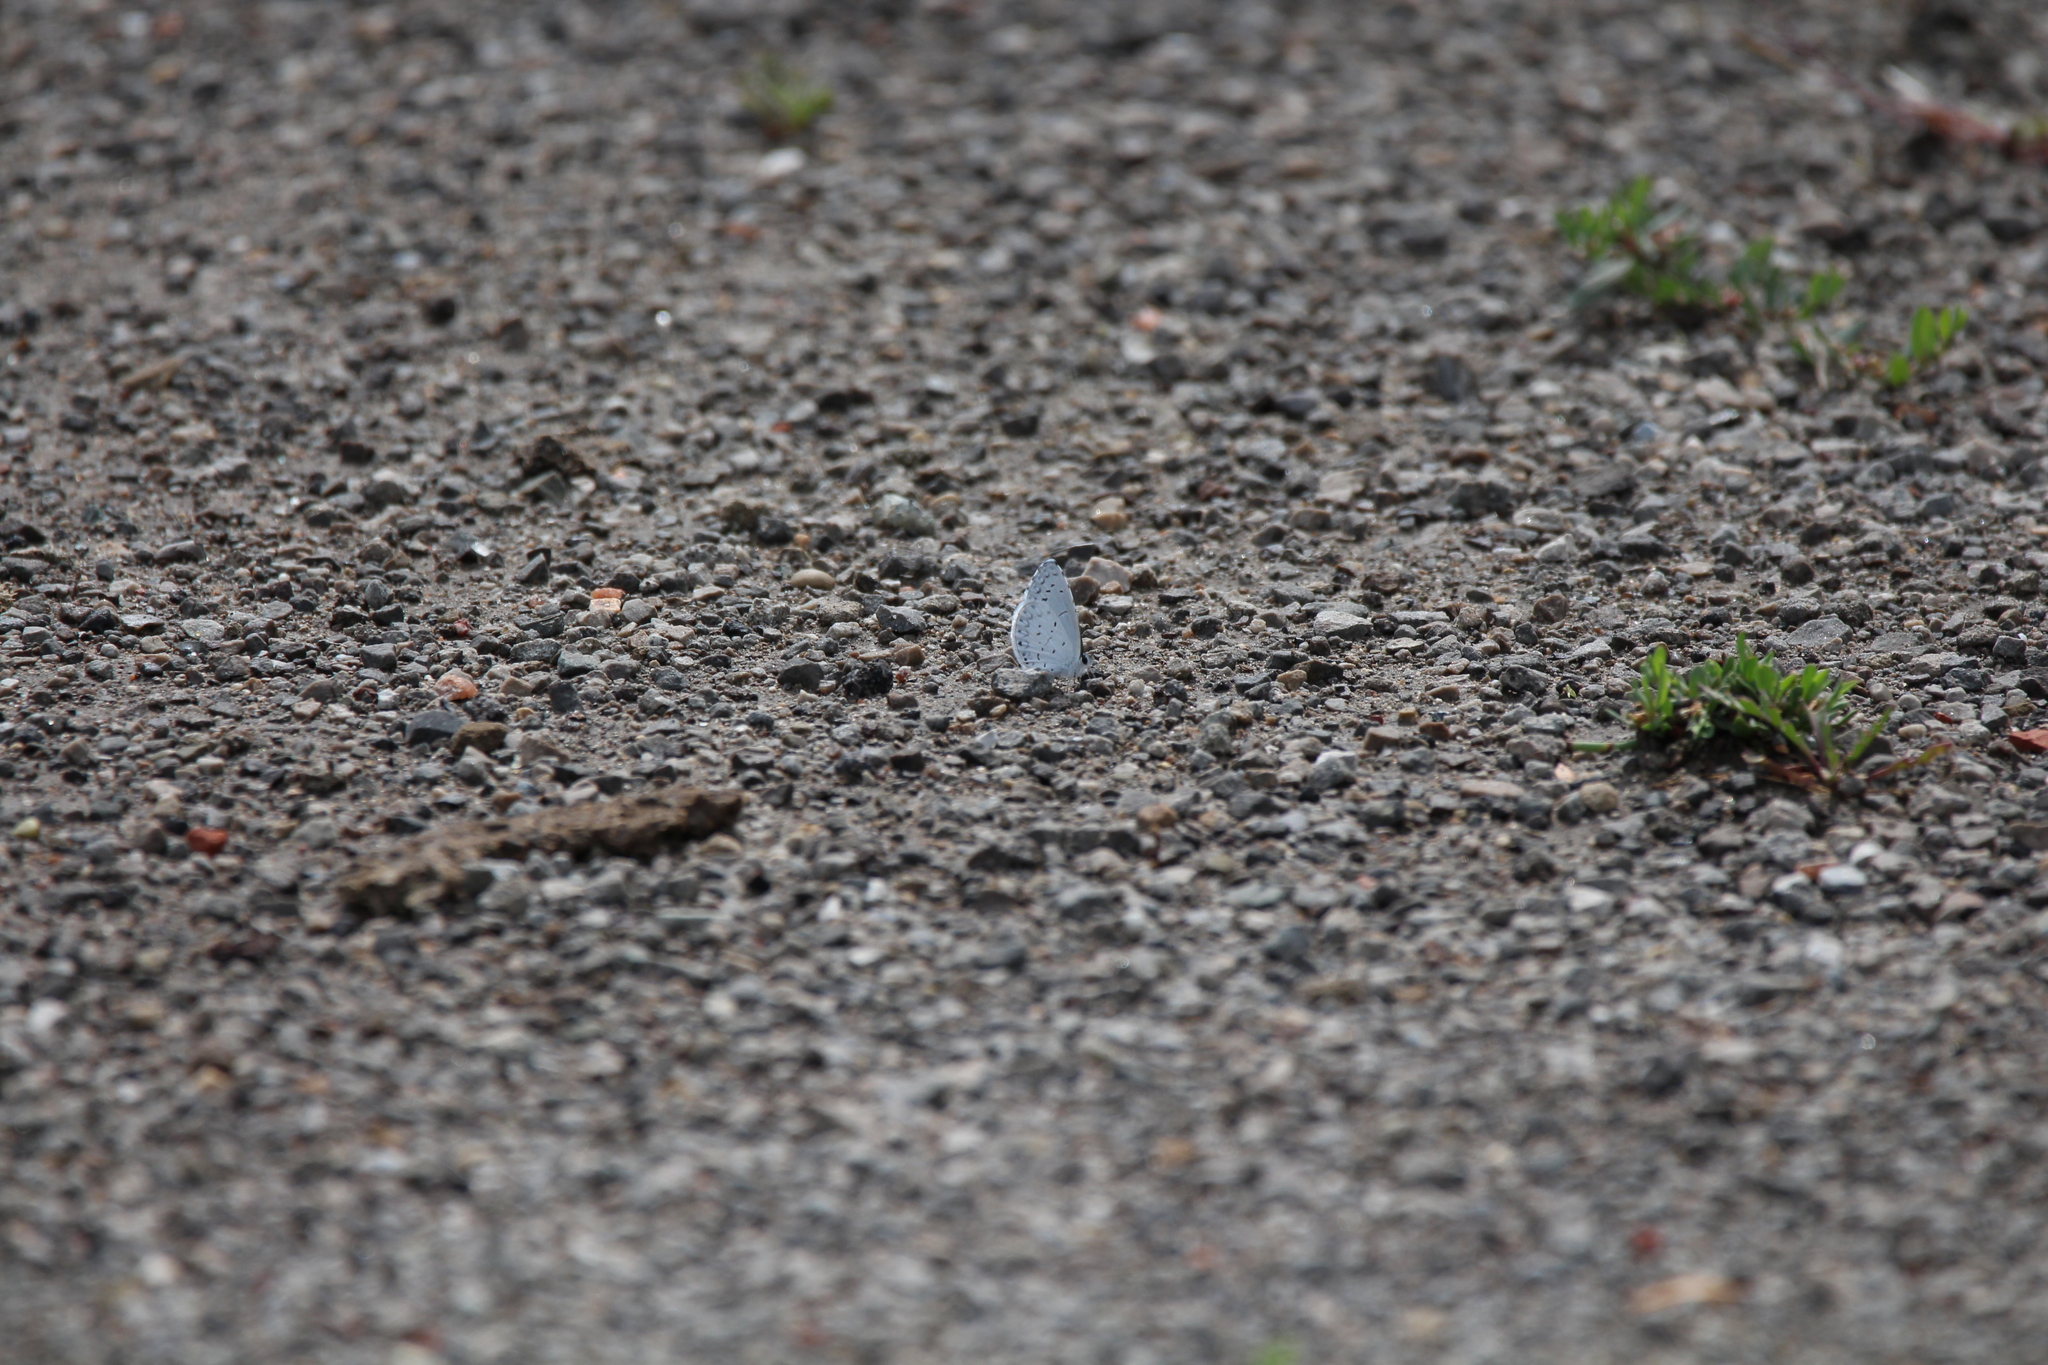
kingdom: Animalia
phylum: Arthropoda
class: Insecta
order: Lepidoptera
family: Lycaenidae
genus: Cyaniris
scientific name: Cyaniris neglecta
